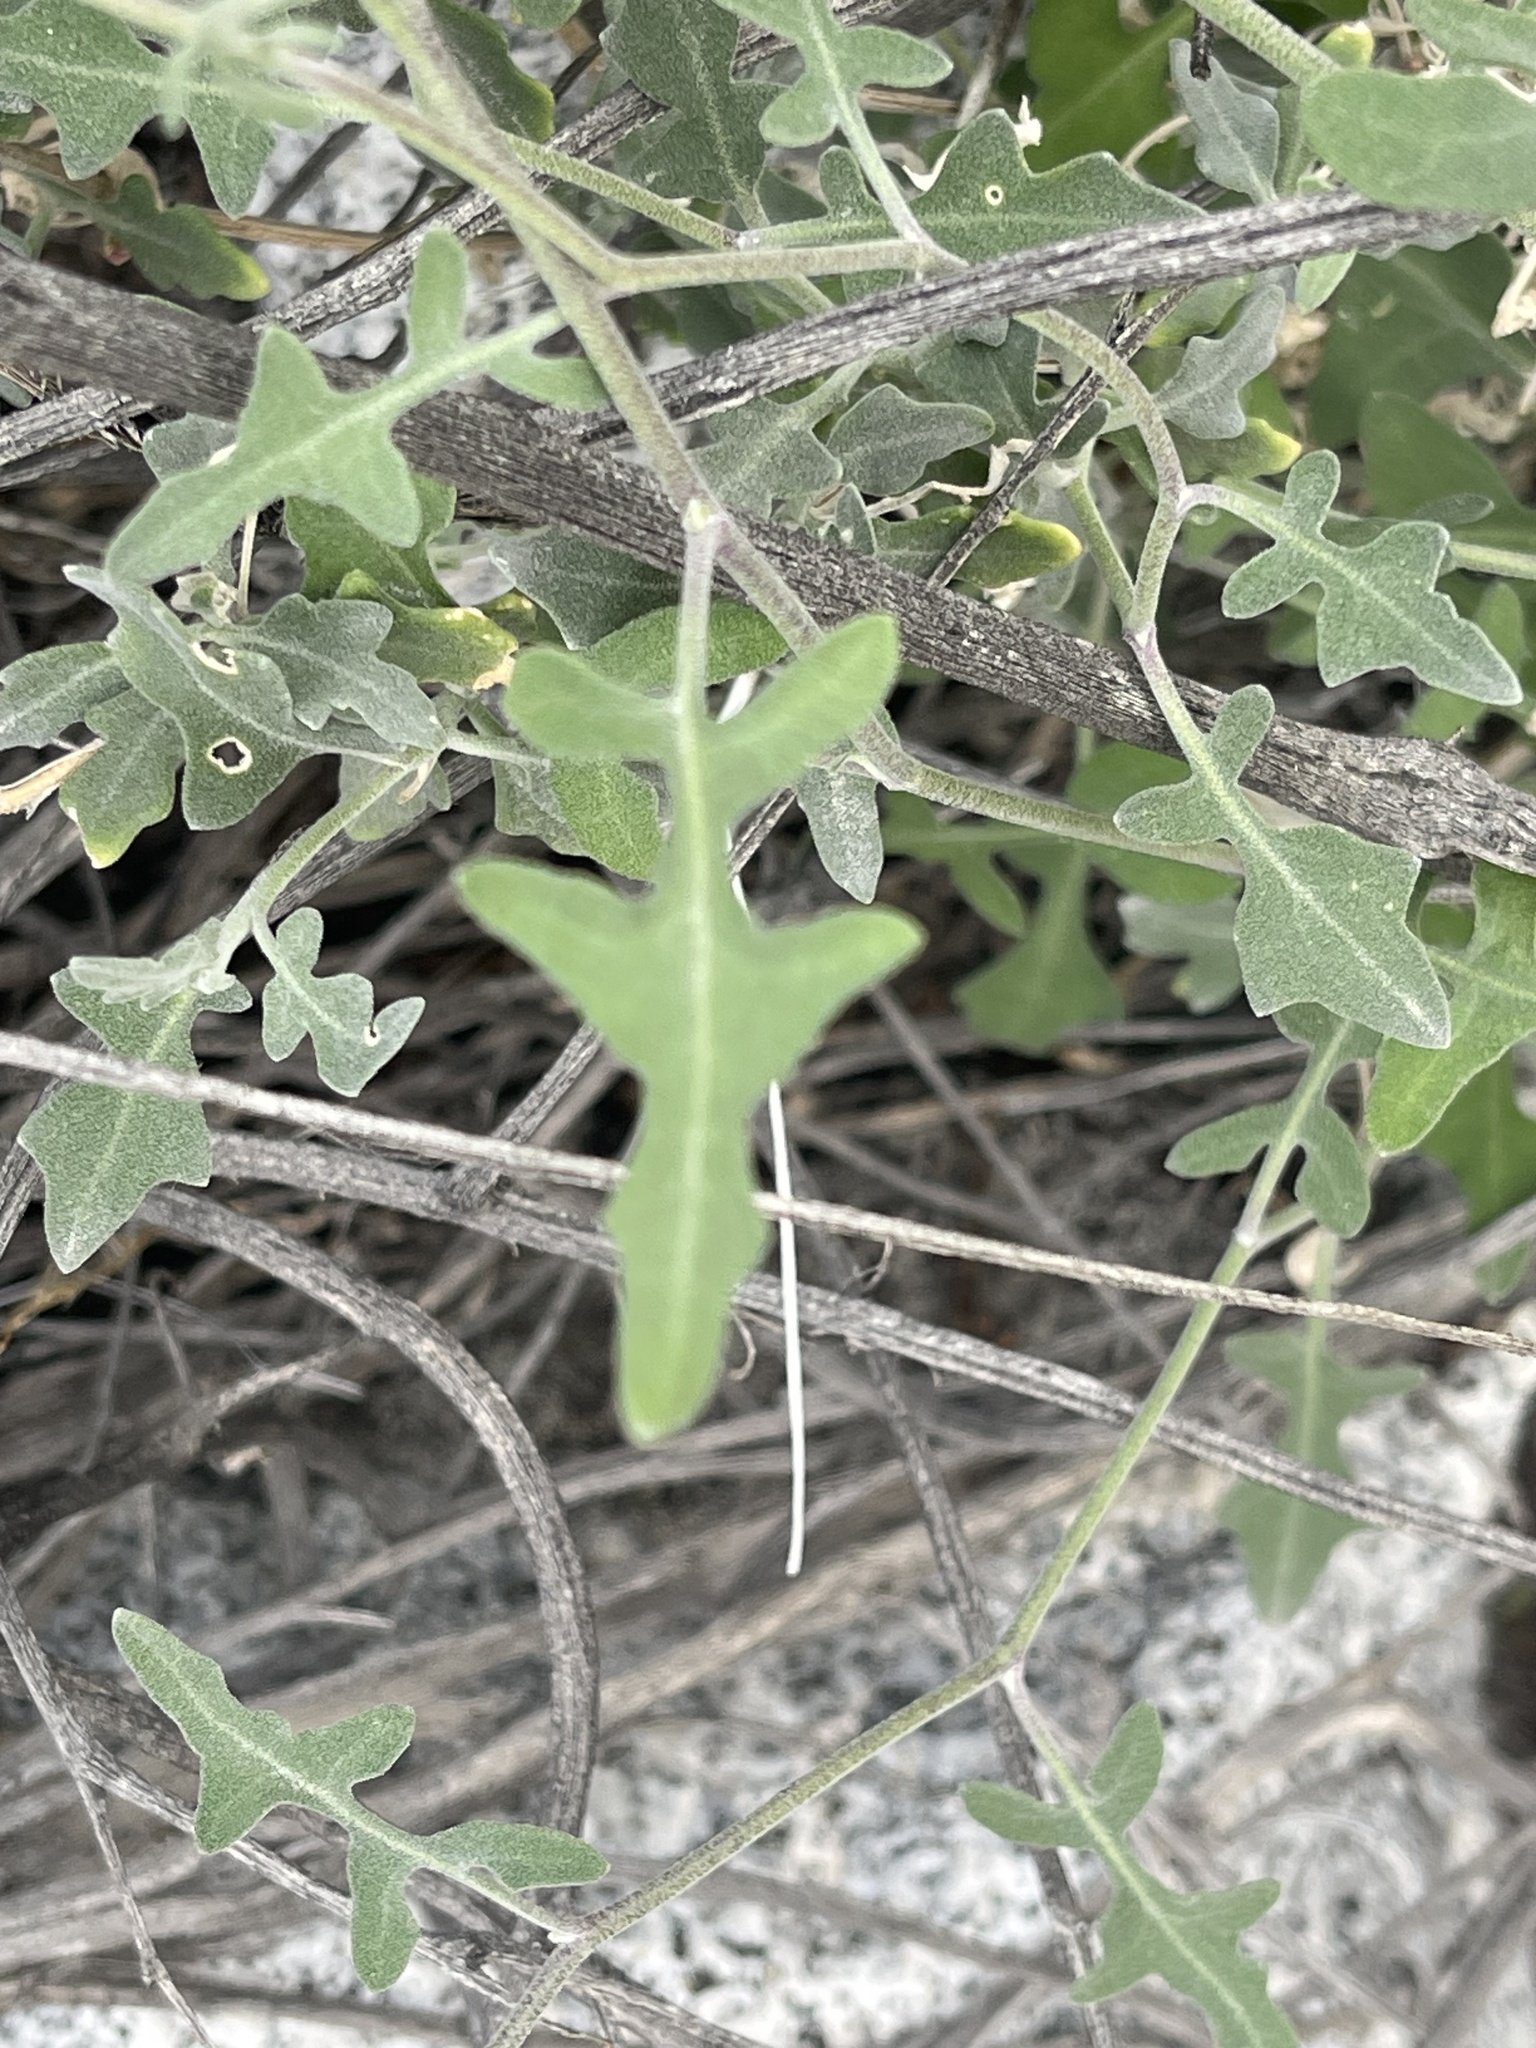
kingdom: Plantae
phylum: Tracheophyta
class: Magnoliopsida
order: Brassicales
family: Brassicaceae
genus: Lyrocarpa
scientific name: Lyrocarpa coulteri
